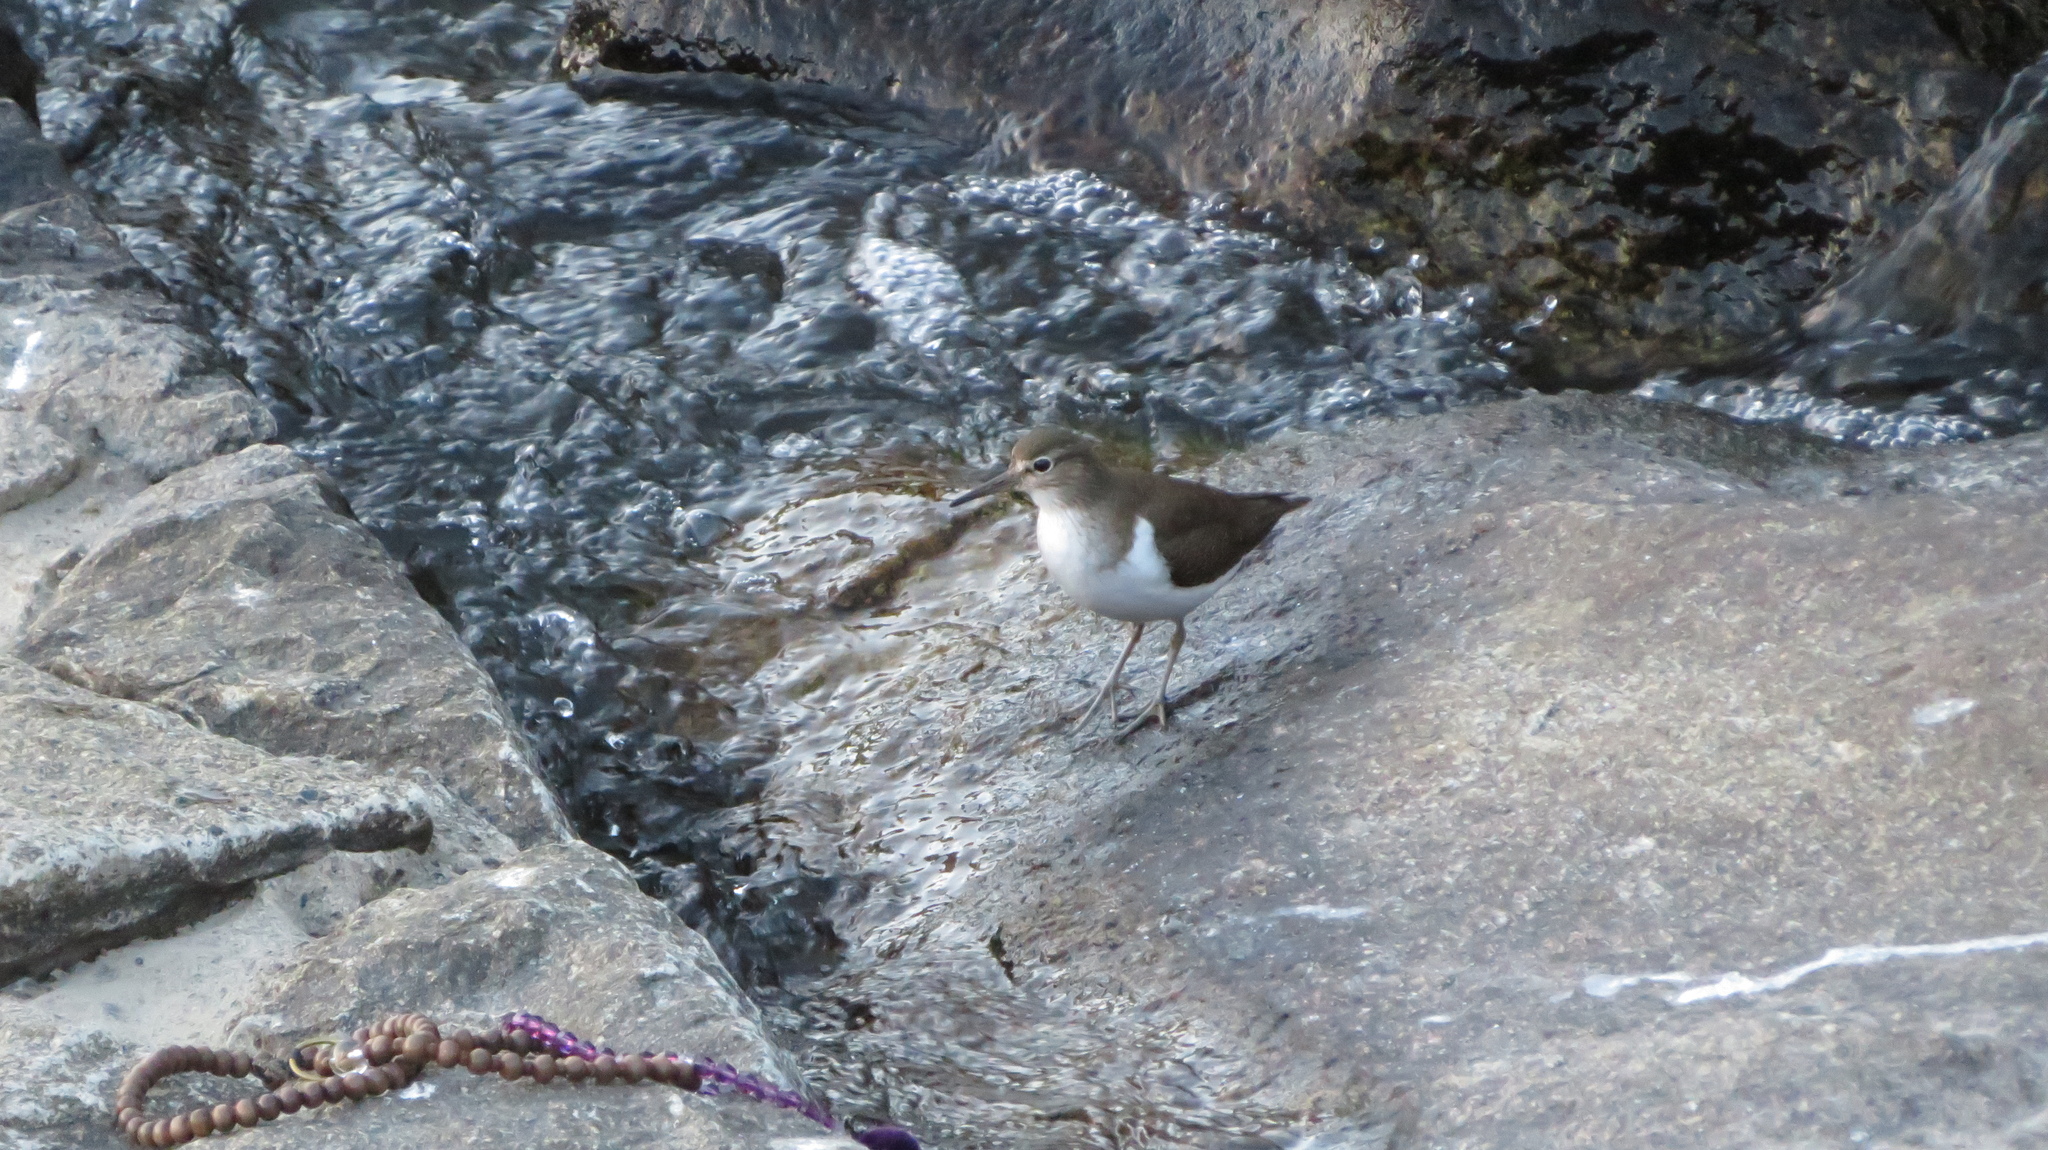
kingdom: Animalia
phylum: Chordata
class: Aves
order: Charadriiformes
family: Scolopacidae
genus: Actitis
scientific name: Actitis hypoleucos
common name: Common sandpiper
